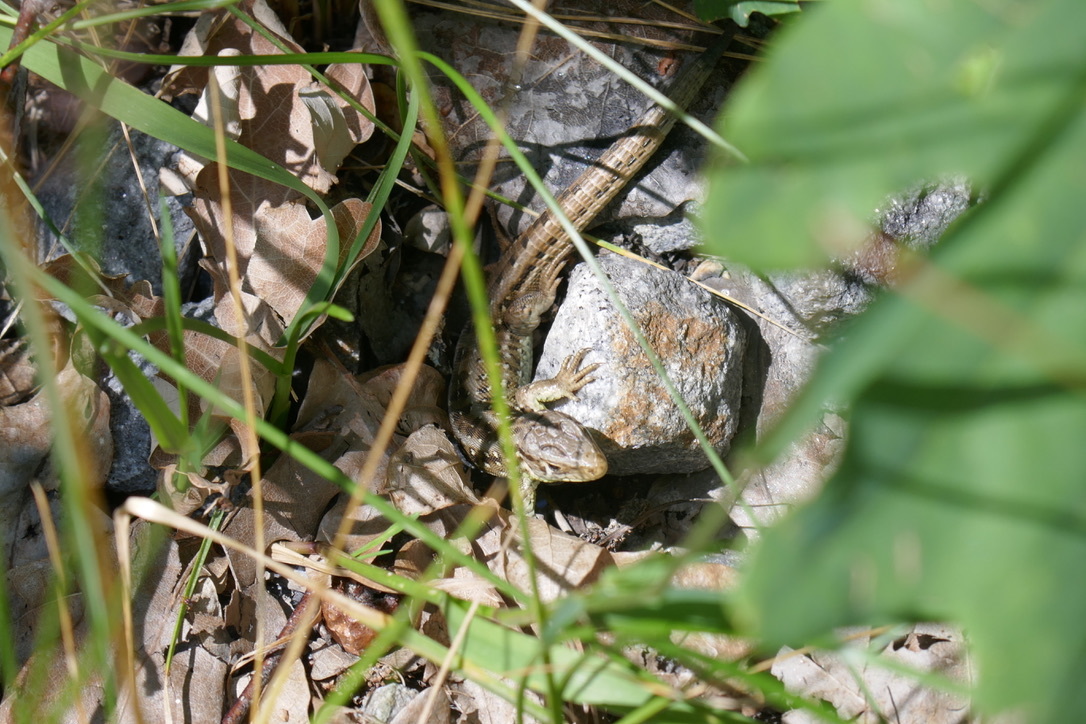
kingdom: Animalia
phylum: Chordata
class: Squamata
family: Lacertidae
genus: Lacerta
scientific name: Lacerta agilis
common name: Sand lizard
